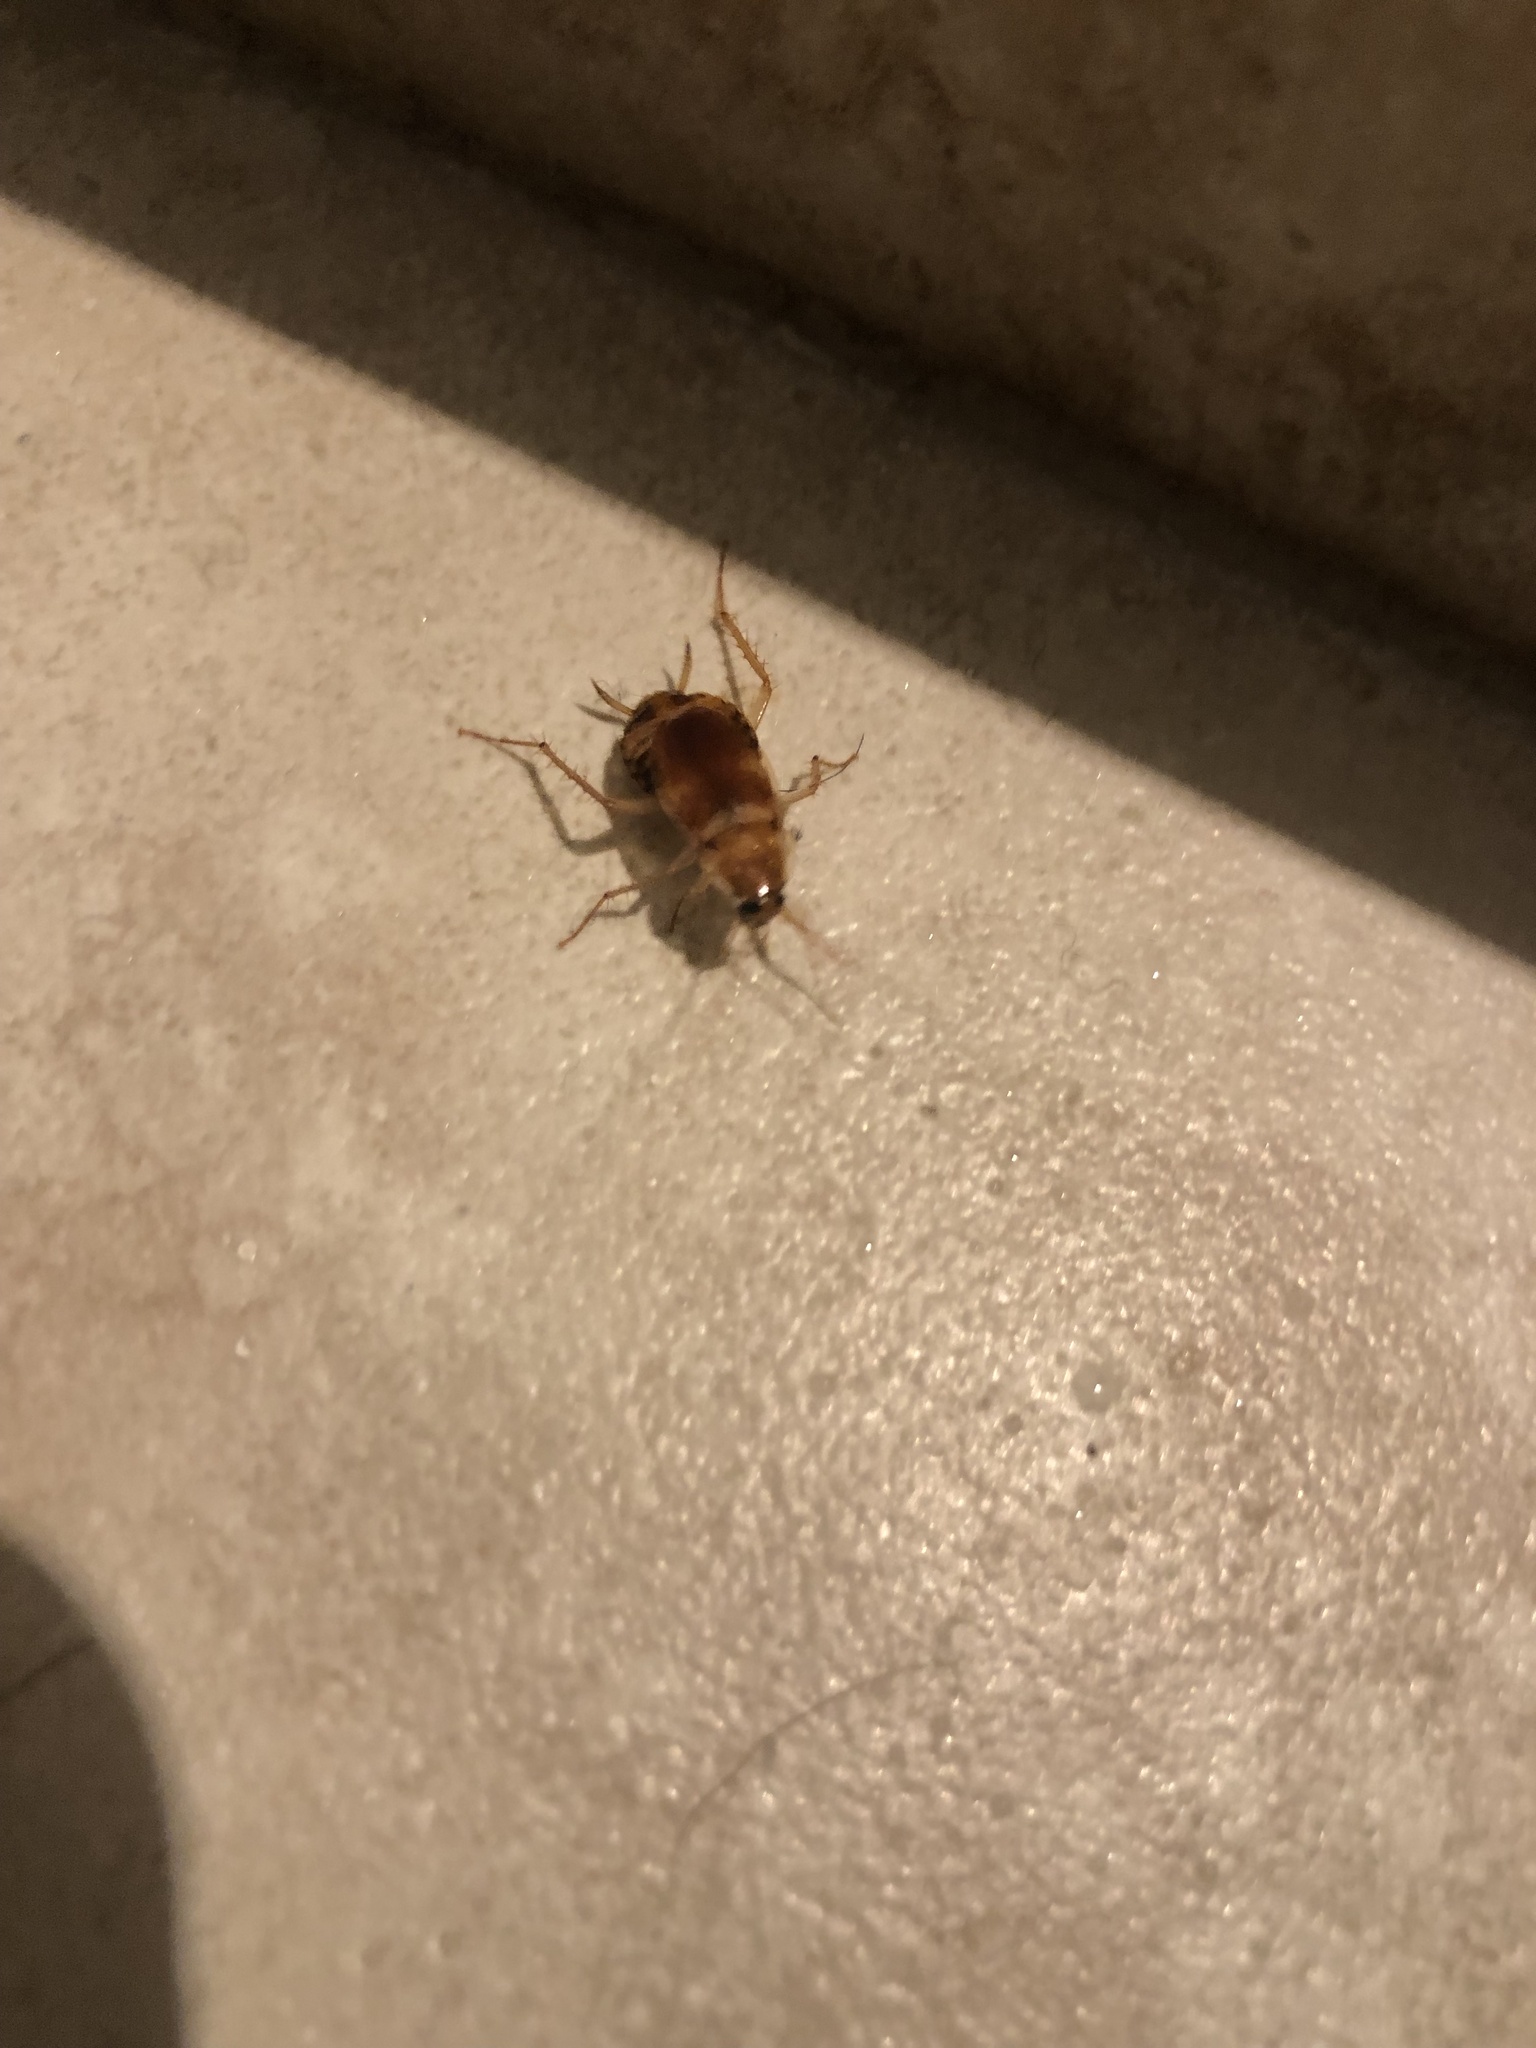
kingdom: Animalia
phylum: Arthropoda
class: Insecta
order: Blattodea
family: Ectobiidae
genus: Supella
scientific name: Supella longipalpa
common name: Brown-banded cockroach
